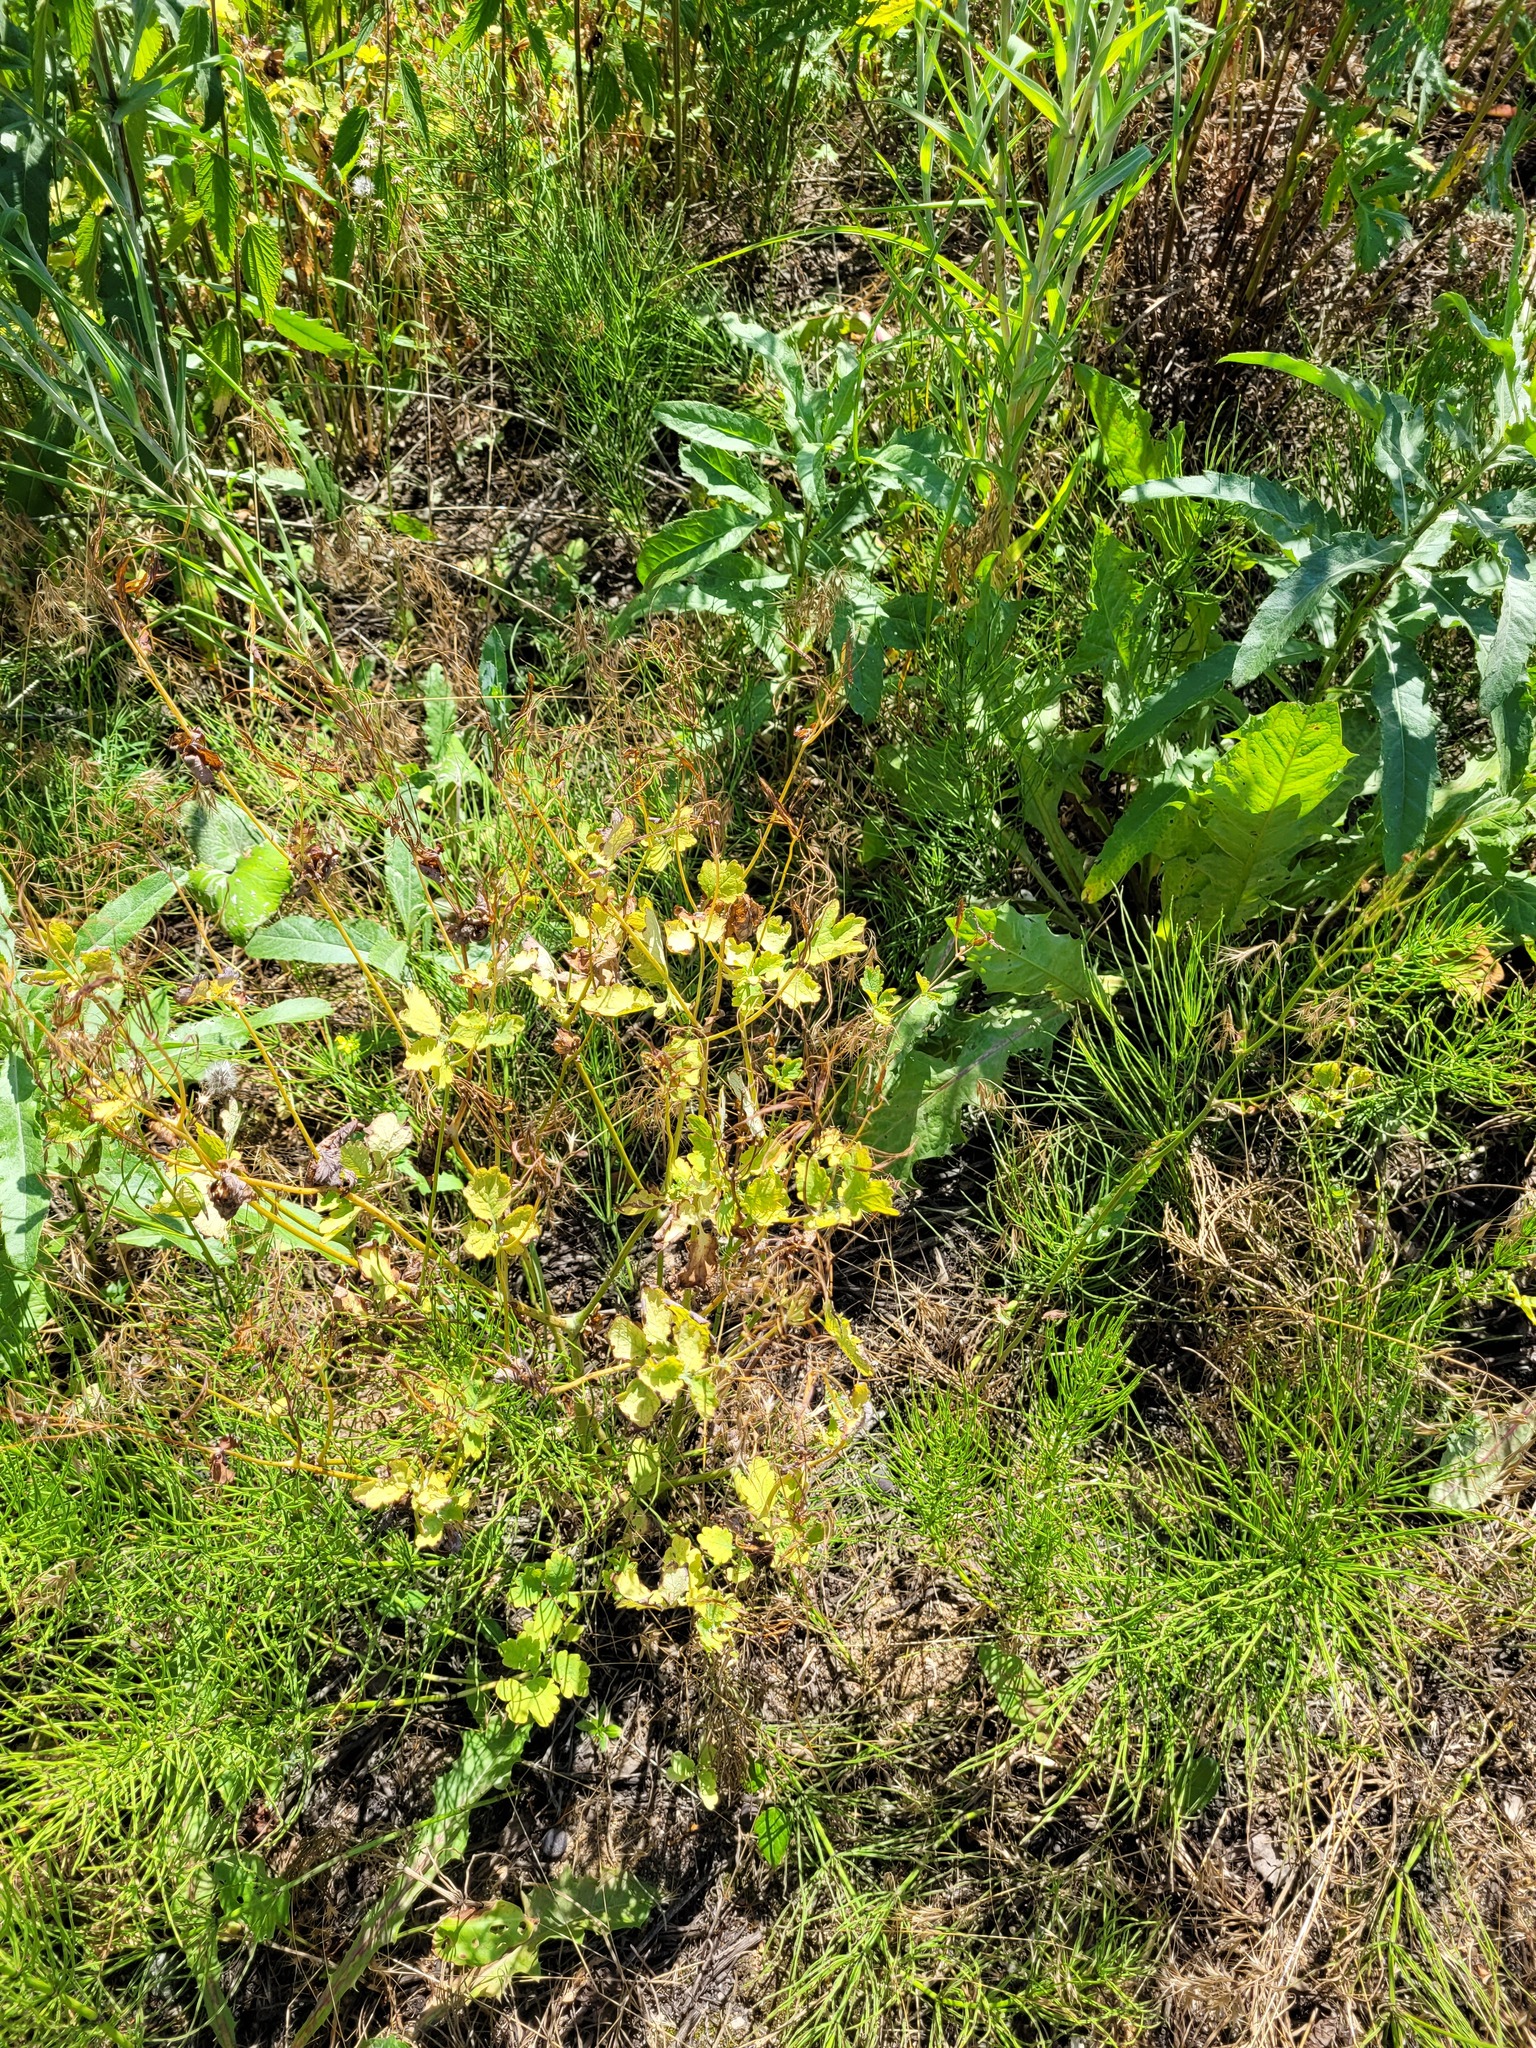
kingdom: Plantae
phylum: Tracheophyta
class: Magnoliopsida
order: Ranunculales
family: Papaveraceae
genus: Chelidonium
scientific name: Chelidonium majus
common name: Greater celandine
